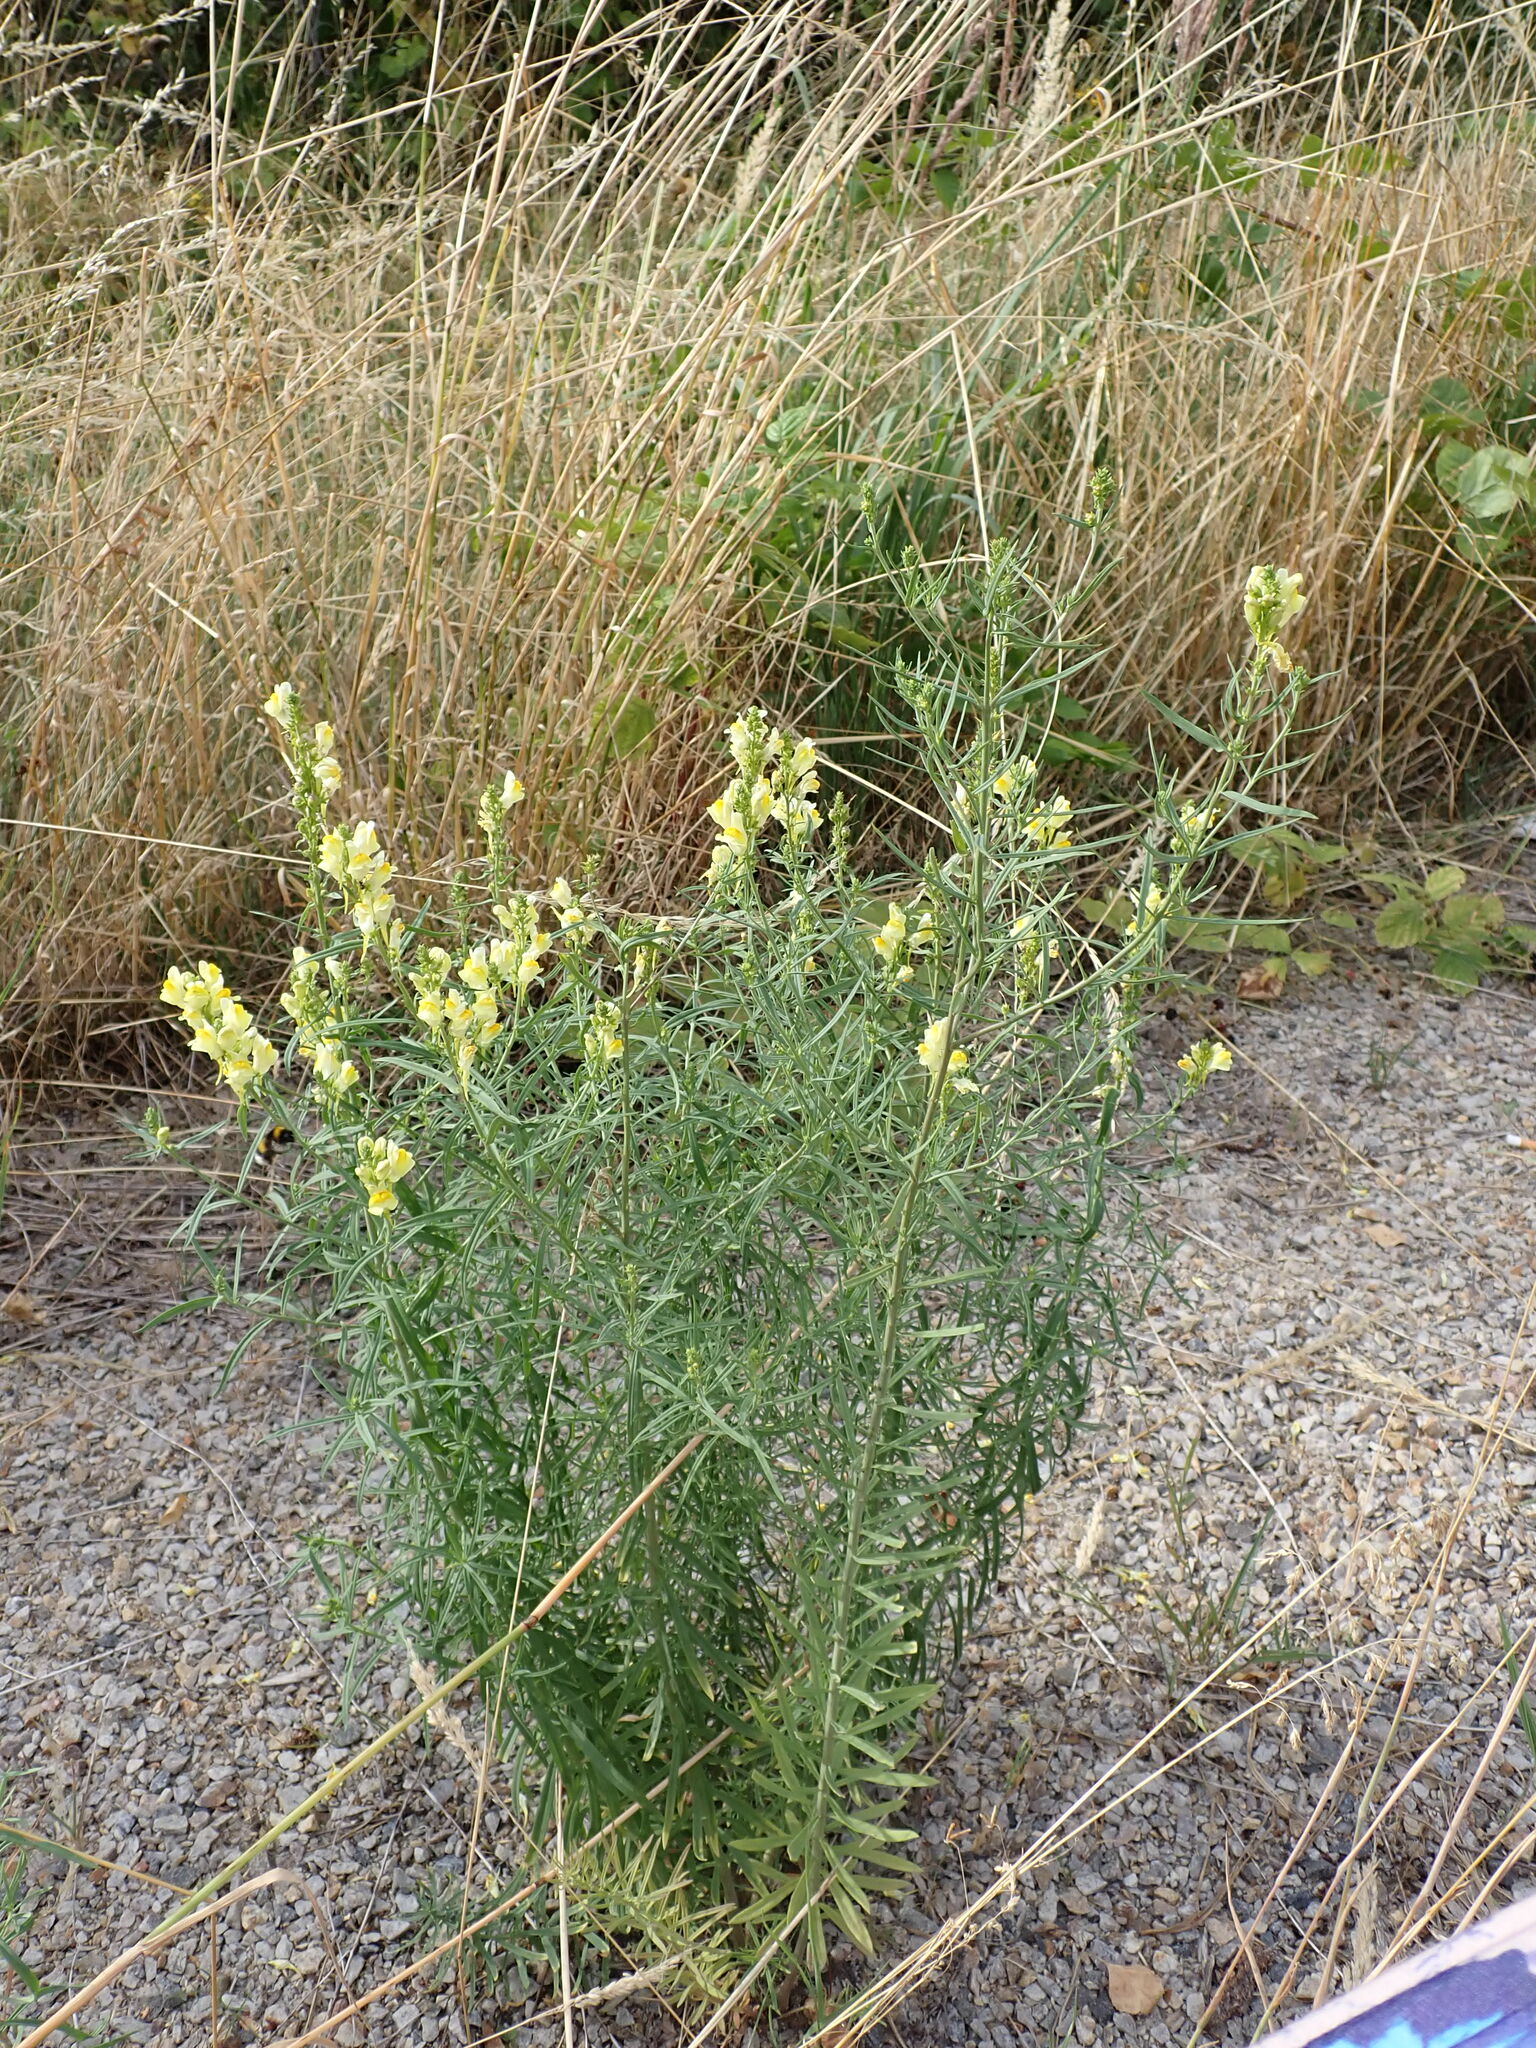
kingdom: Plantae
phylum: Tracheophyta
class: Magnoliopsida
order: Lamiales
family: Plantaginaceae
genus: Linaria
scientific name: Linaria vulgaris
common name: Butter and eggs
